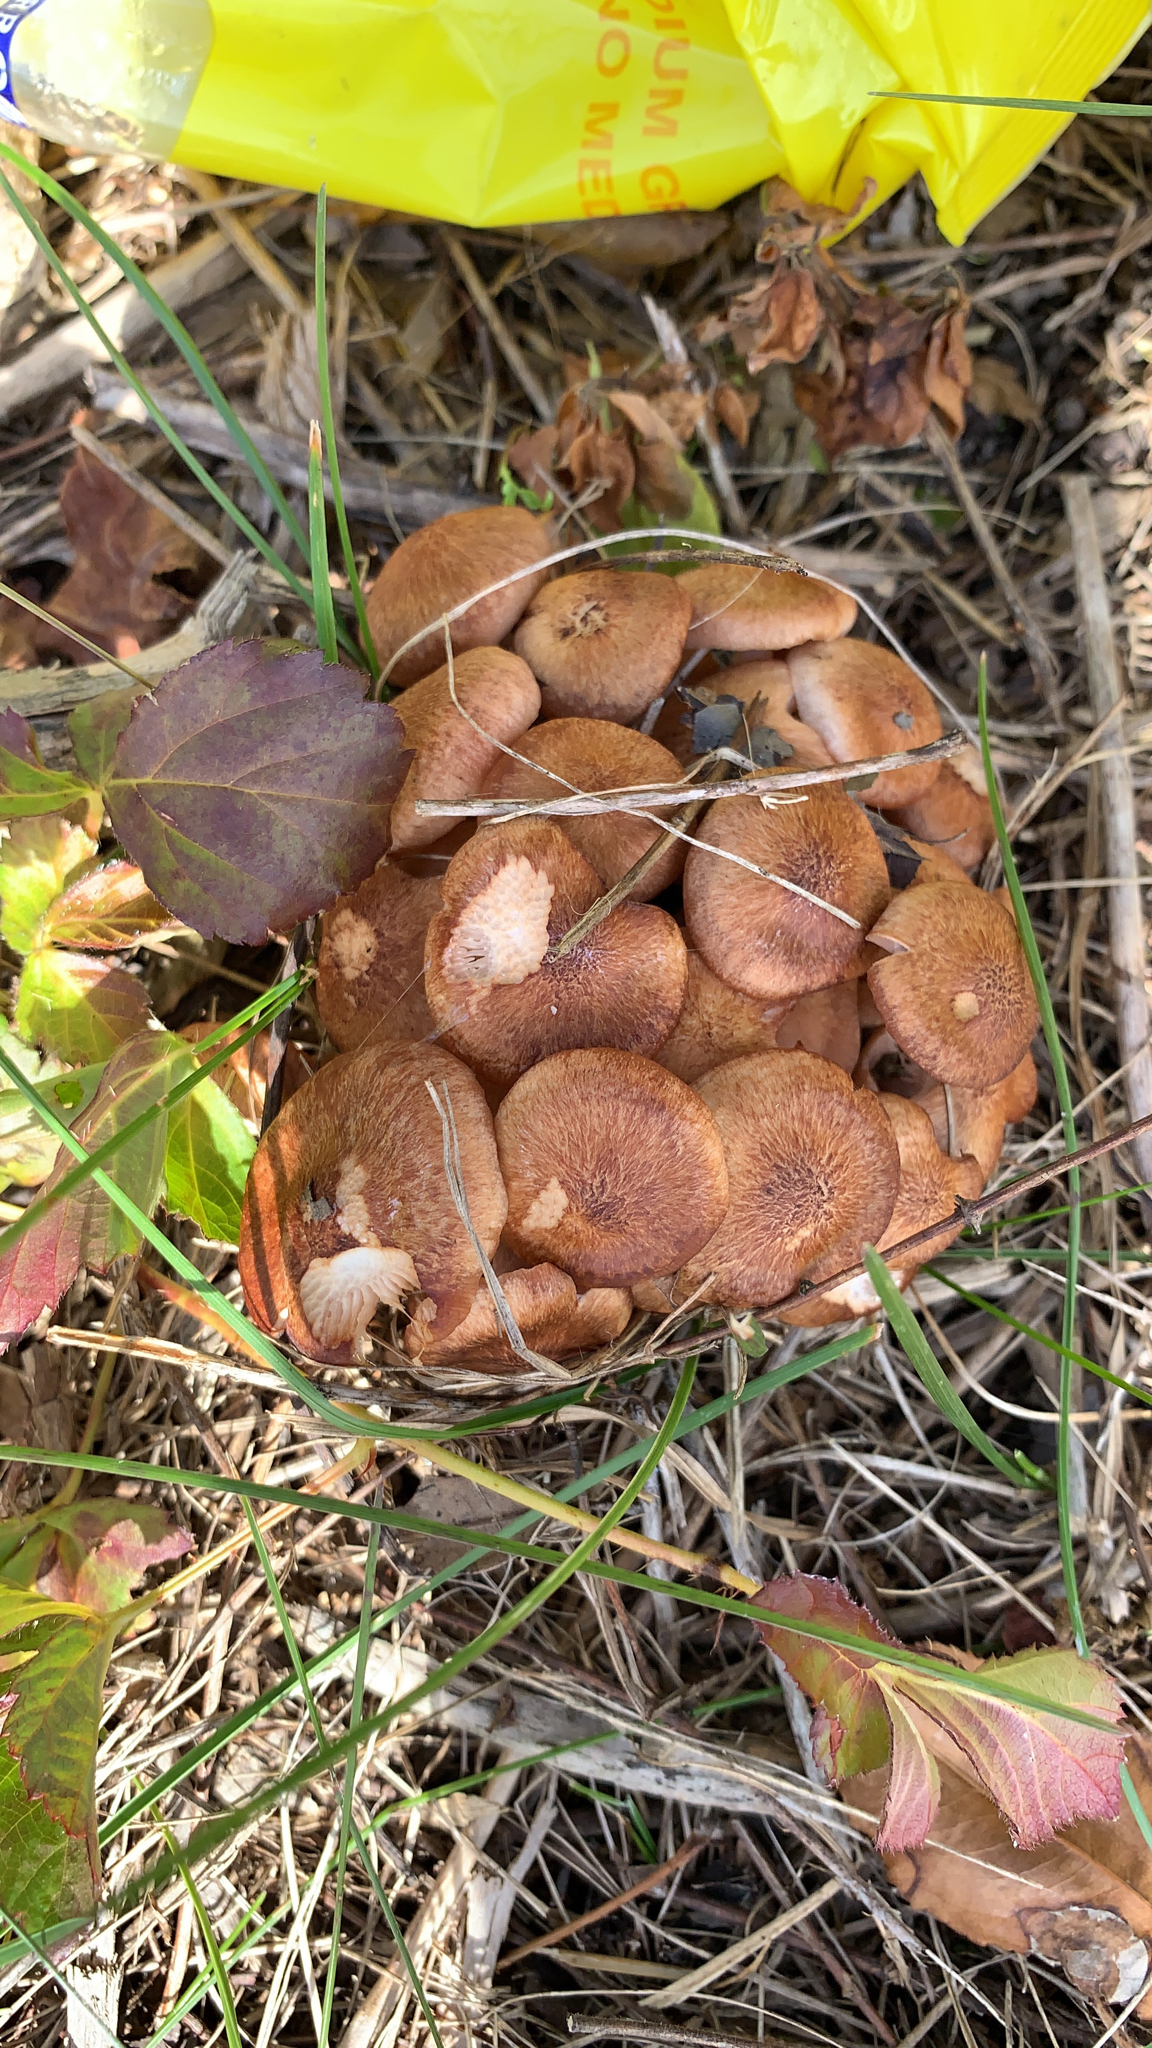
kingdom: Fungi
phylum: Basidiomycota
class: Agaricomycetes
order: Agaricales
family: Physalacriaceae
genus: Desarmillaria
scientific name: Desarmillaria caespitosa
